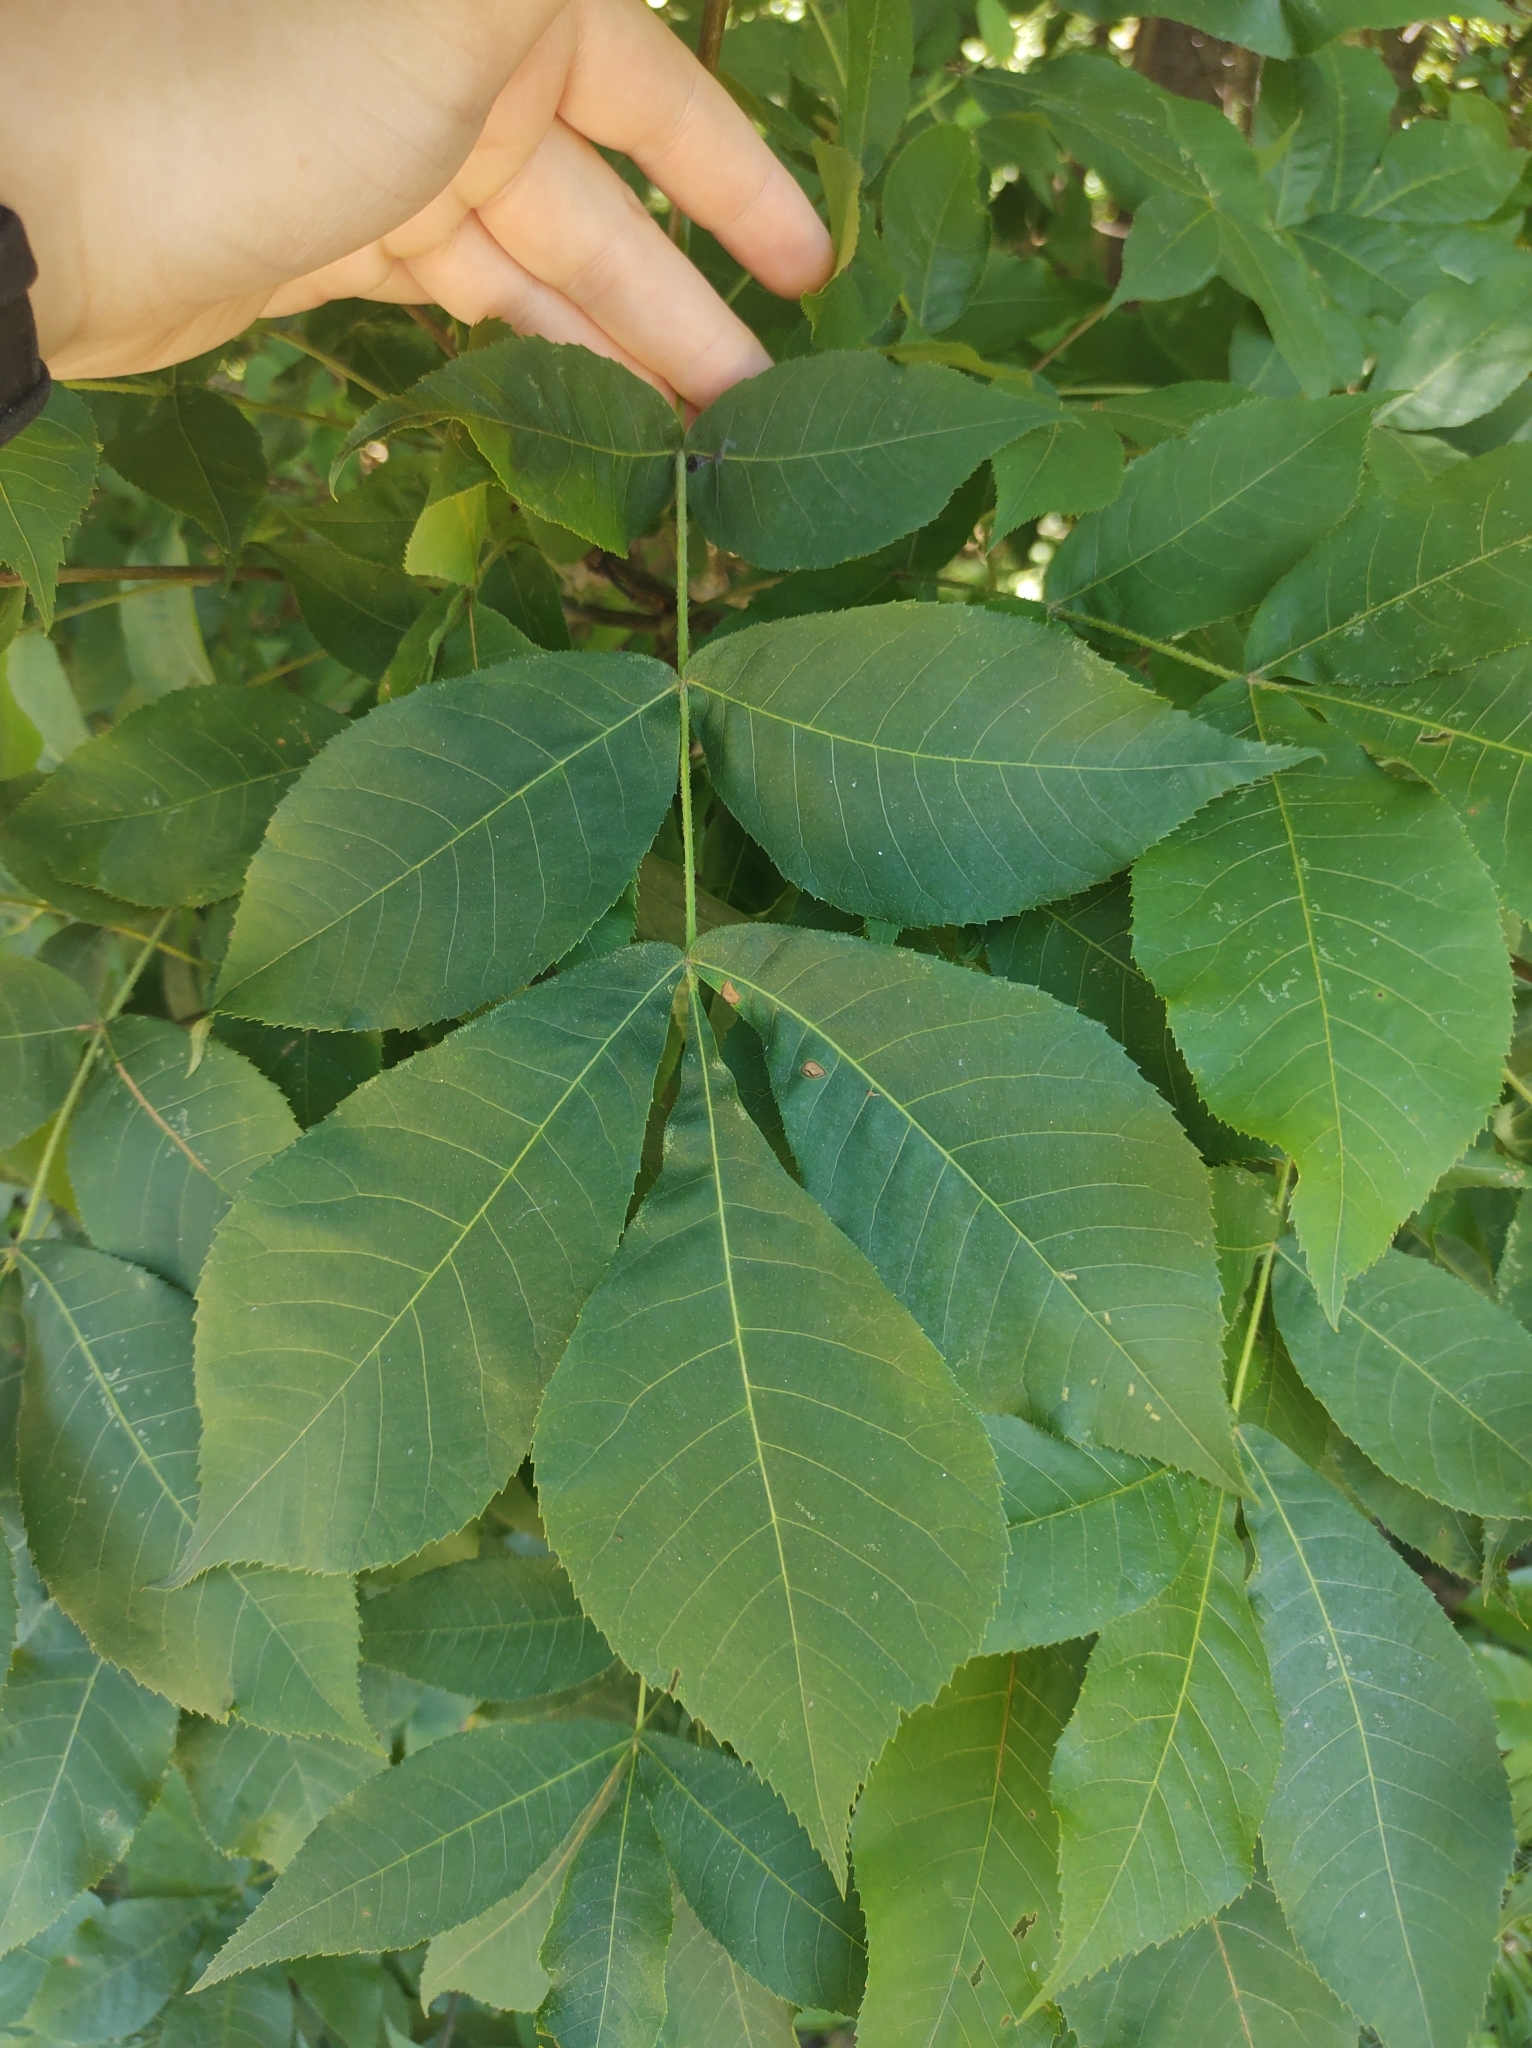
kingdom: Plantae
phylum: Tracheophyta
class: Magnoliopsida
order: Fagales
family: Juglandaceae
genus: Carya
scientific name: Carya alba
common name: Mockernut hickory
